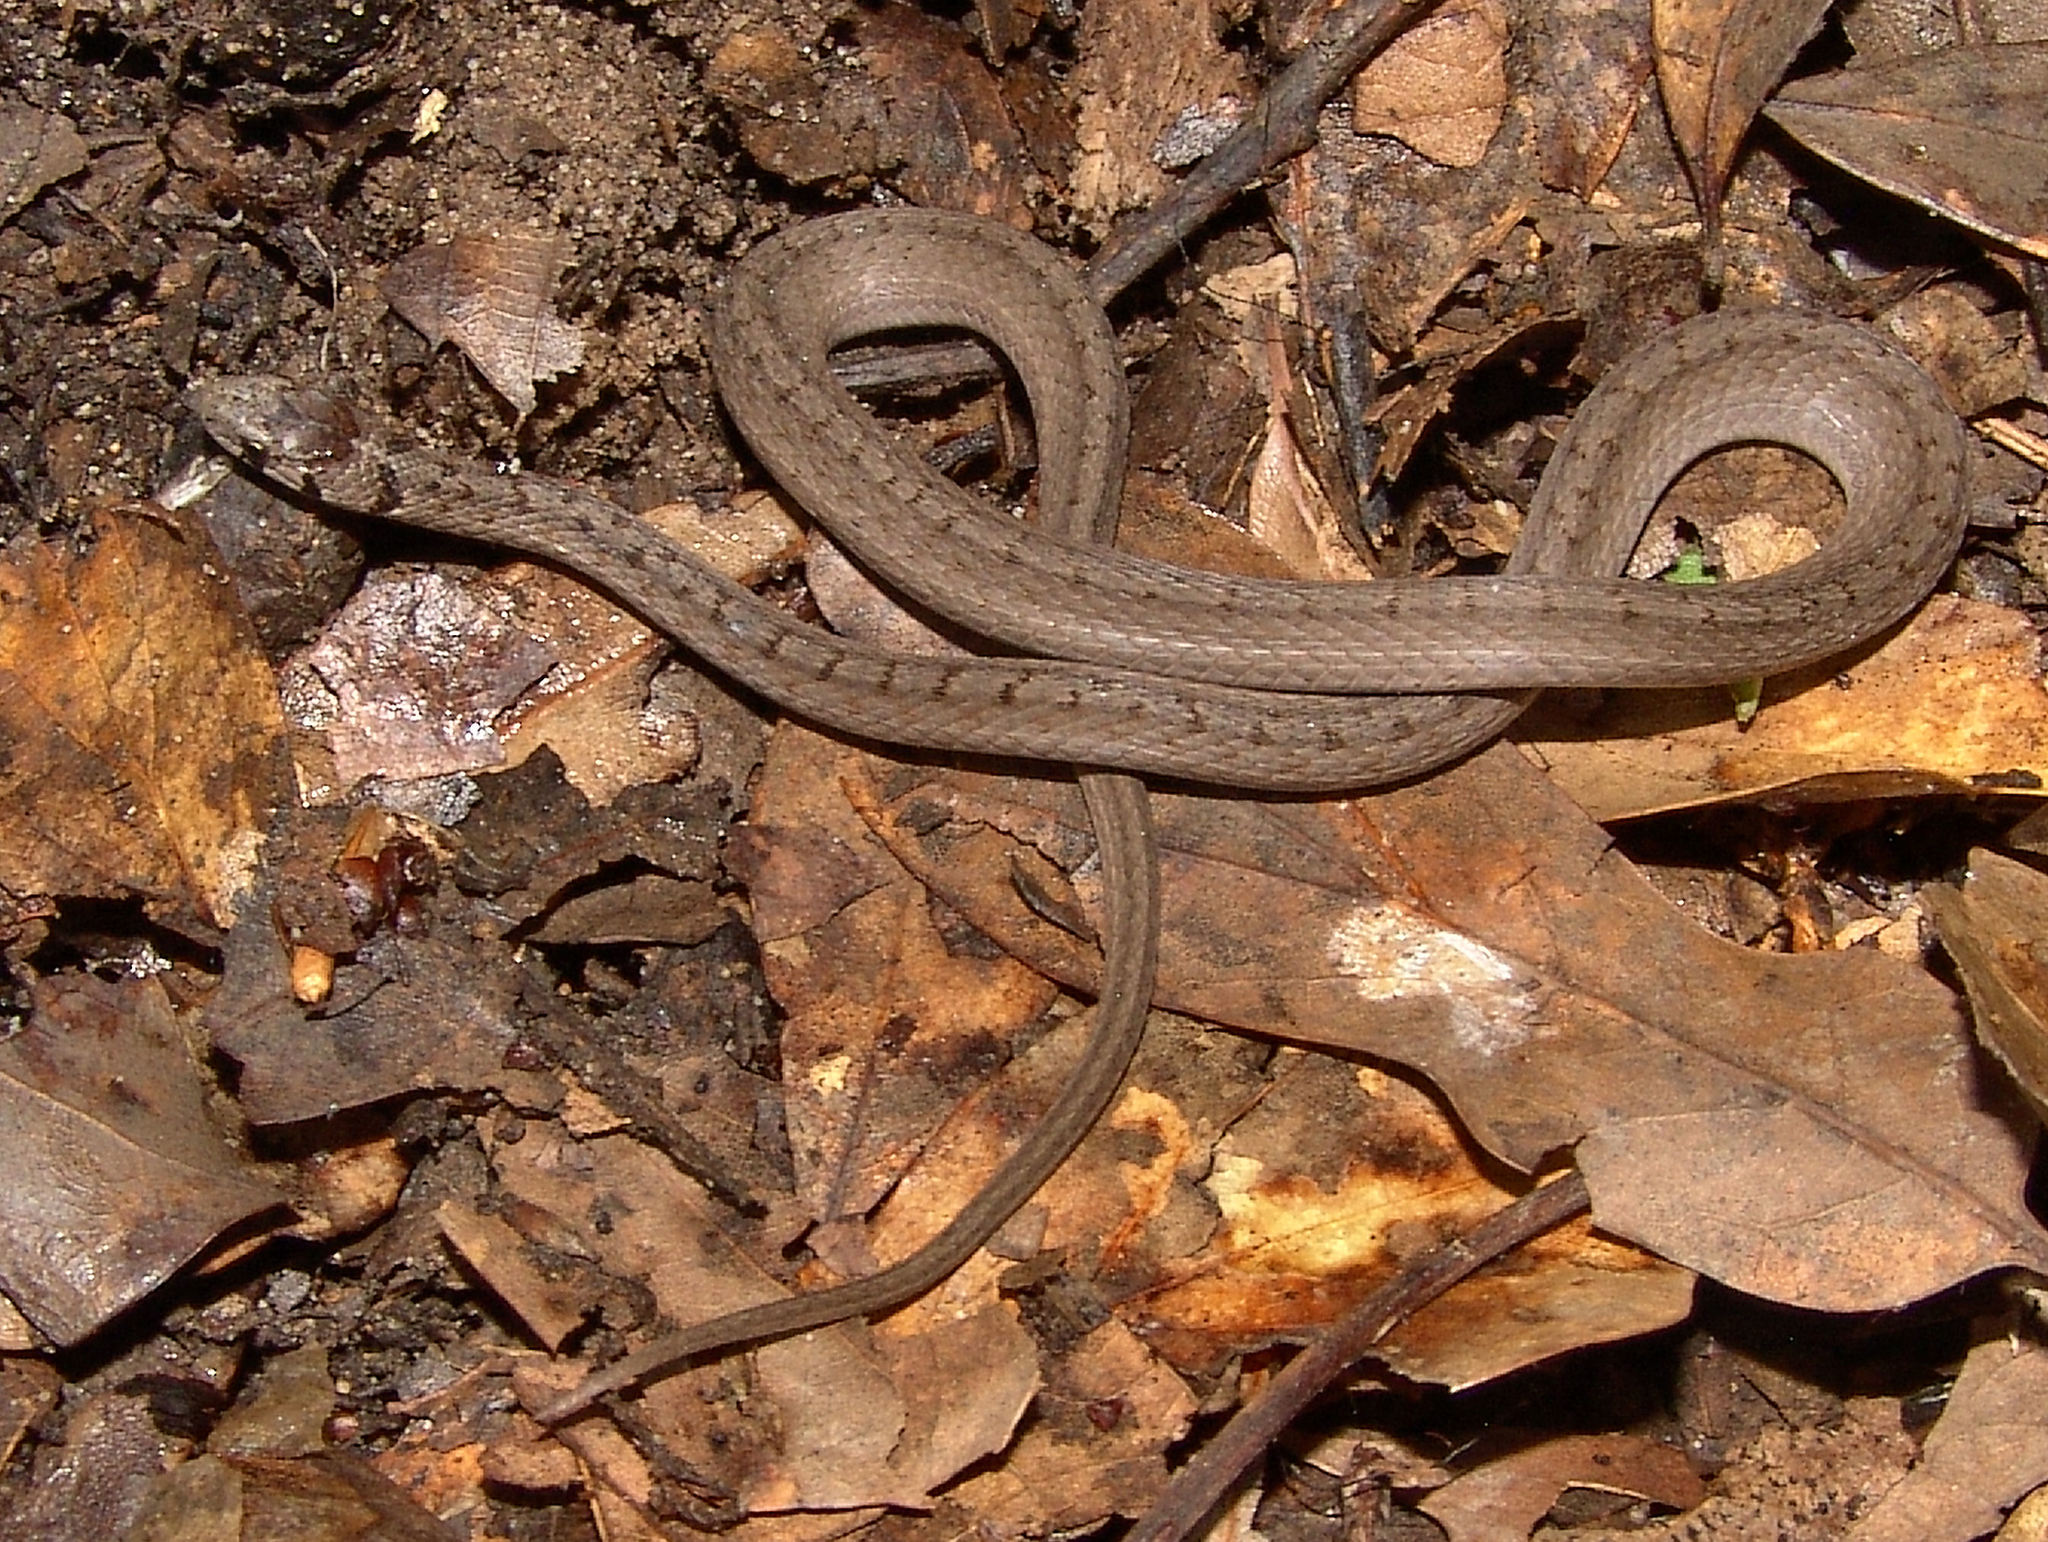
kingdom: Animalia
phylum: Chordata
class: Squamata
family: Colubridae
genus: Storeria
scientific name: Storeria dekayi
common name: (dekay’s) brown snake
